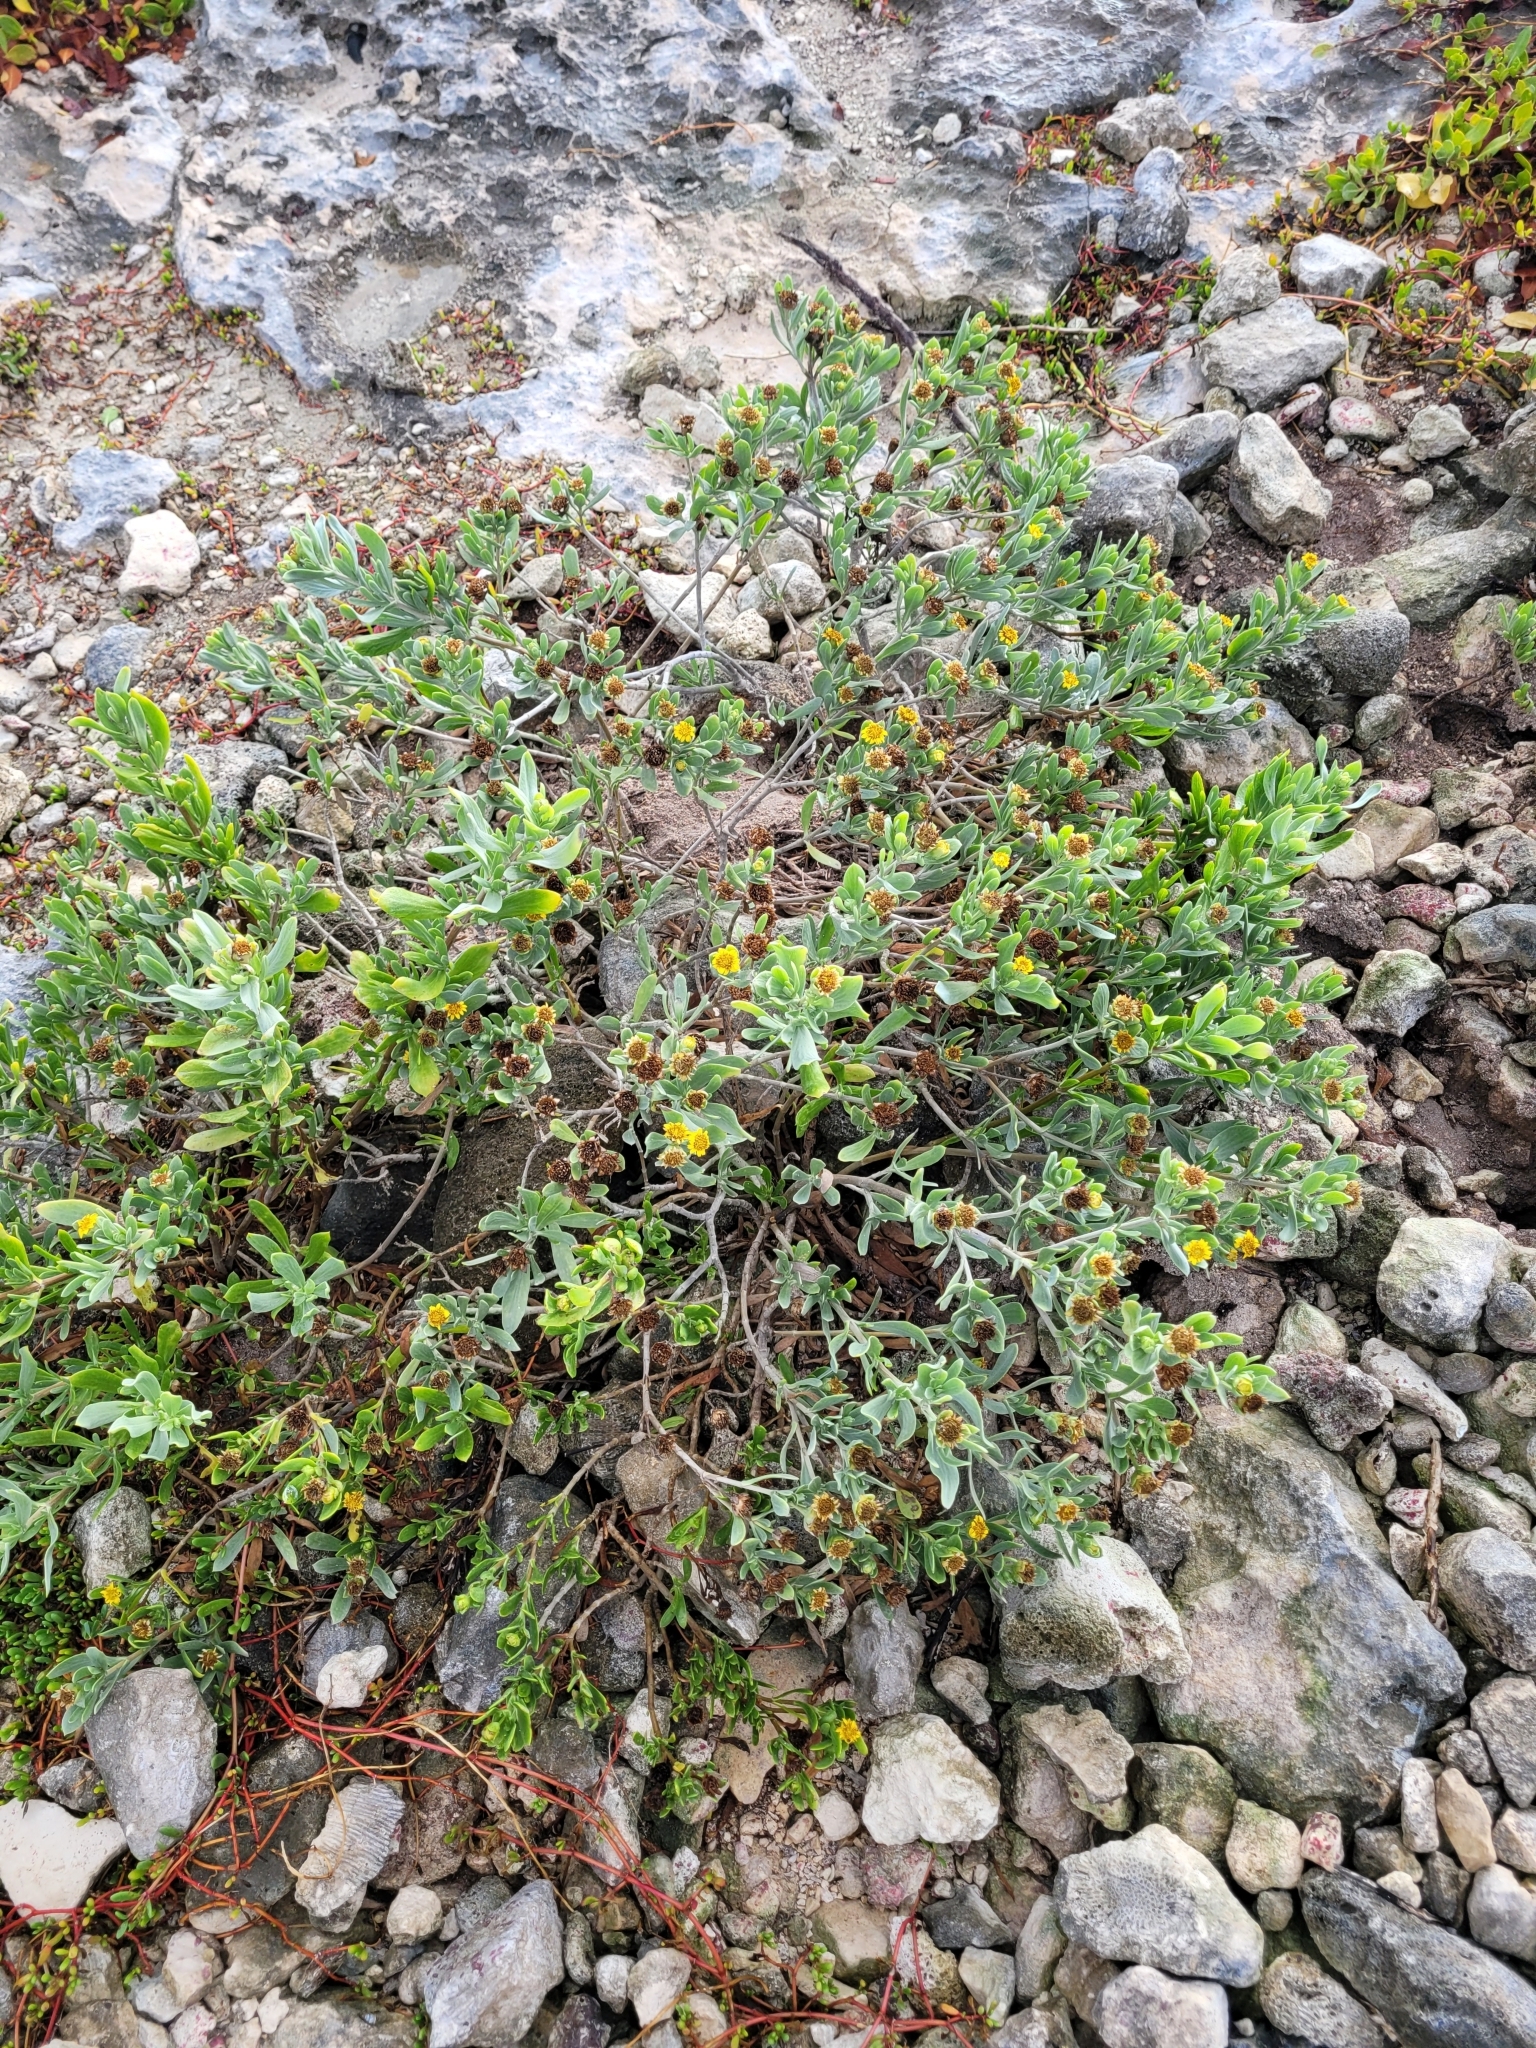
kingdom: Plantae
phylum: Tracheophyta
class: Magnoliopsida
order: Asterales
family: Asteraceae
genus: Borrichia
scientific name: Borrichia frutescens
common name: Sea oxeye
